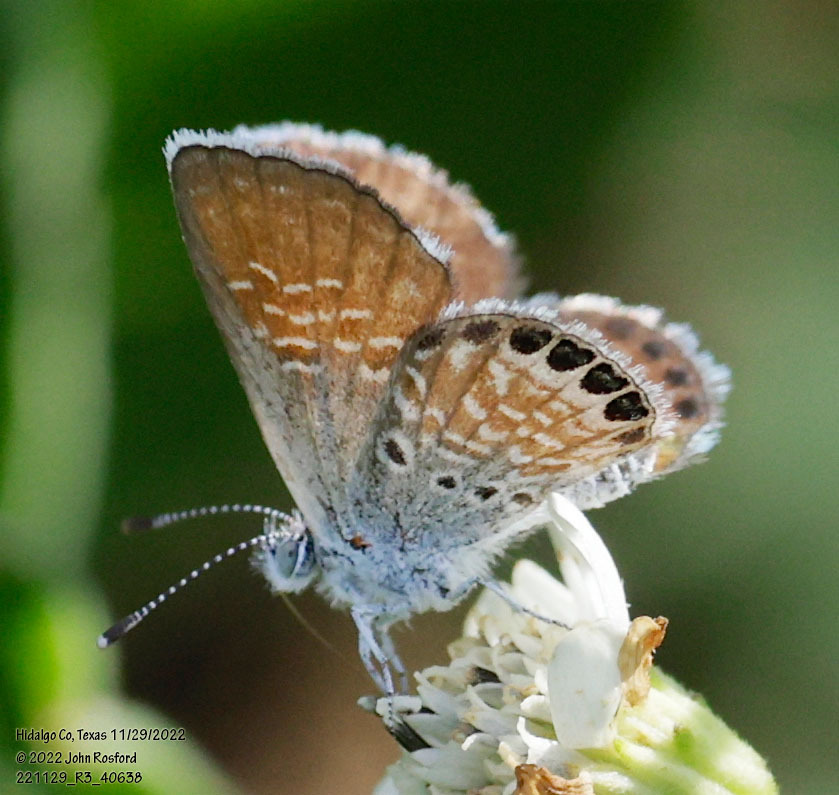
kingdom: Animalia
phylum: Arthropoda
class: Insecta
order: Lepidoptera
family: Lycaenidae
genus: Brephidium
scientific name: Brephidium exilis
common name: Pygmy blue
